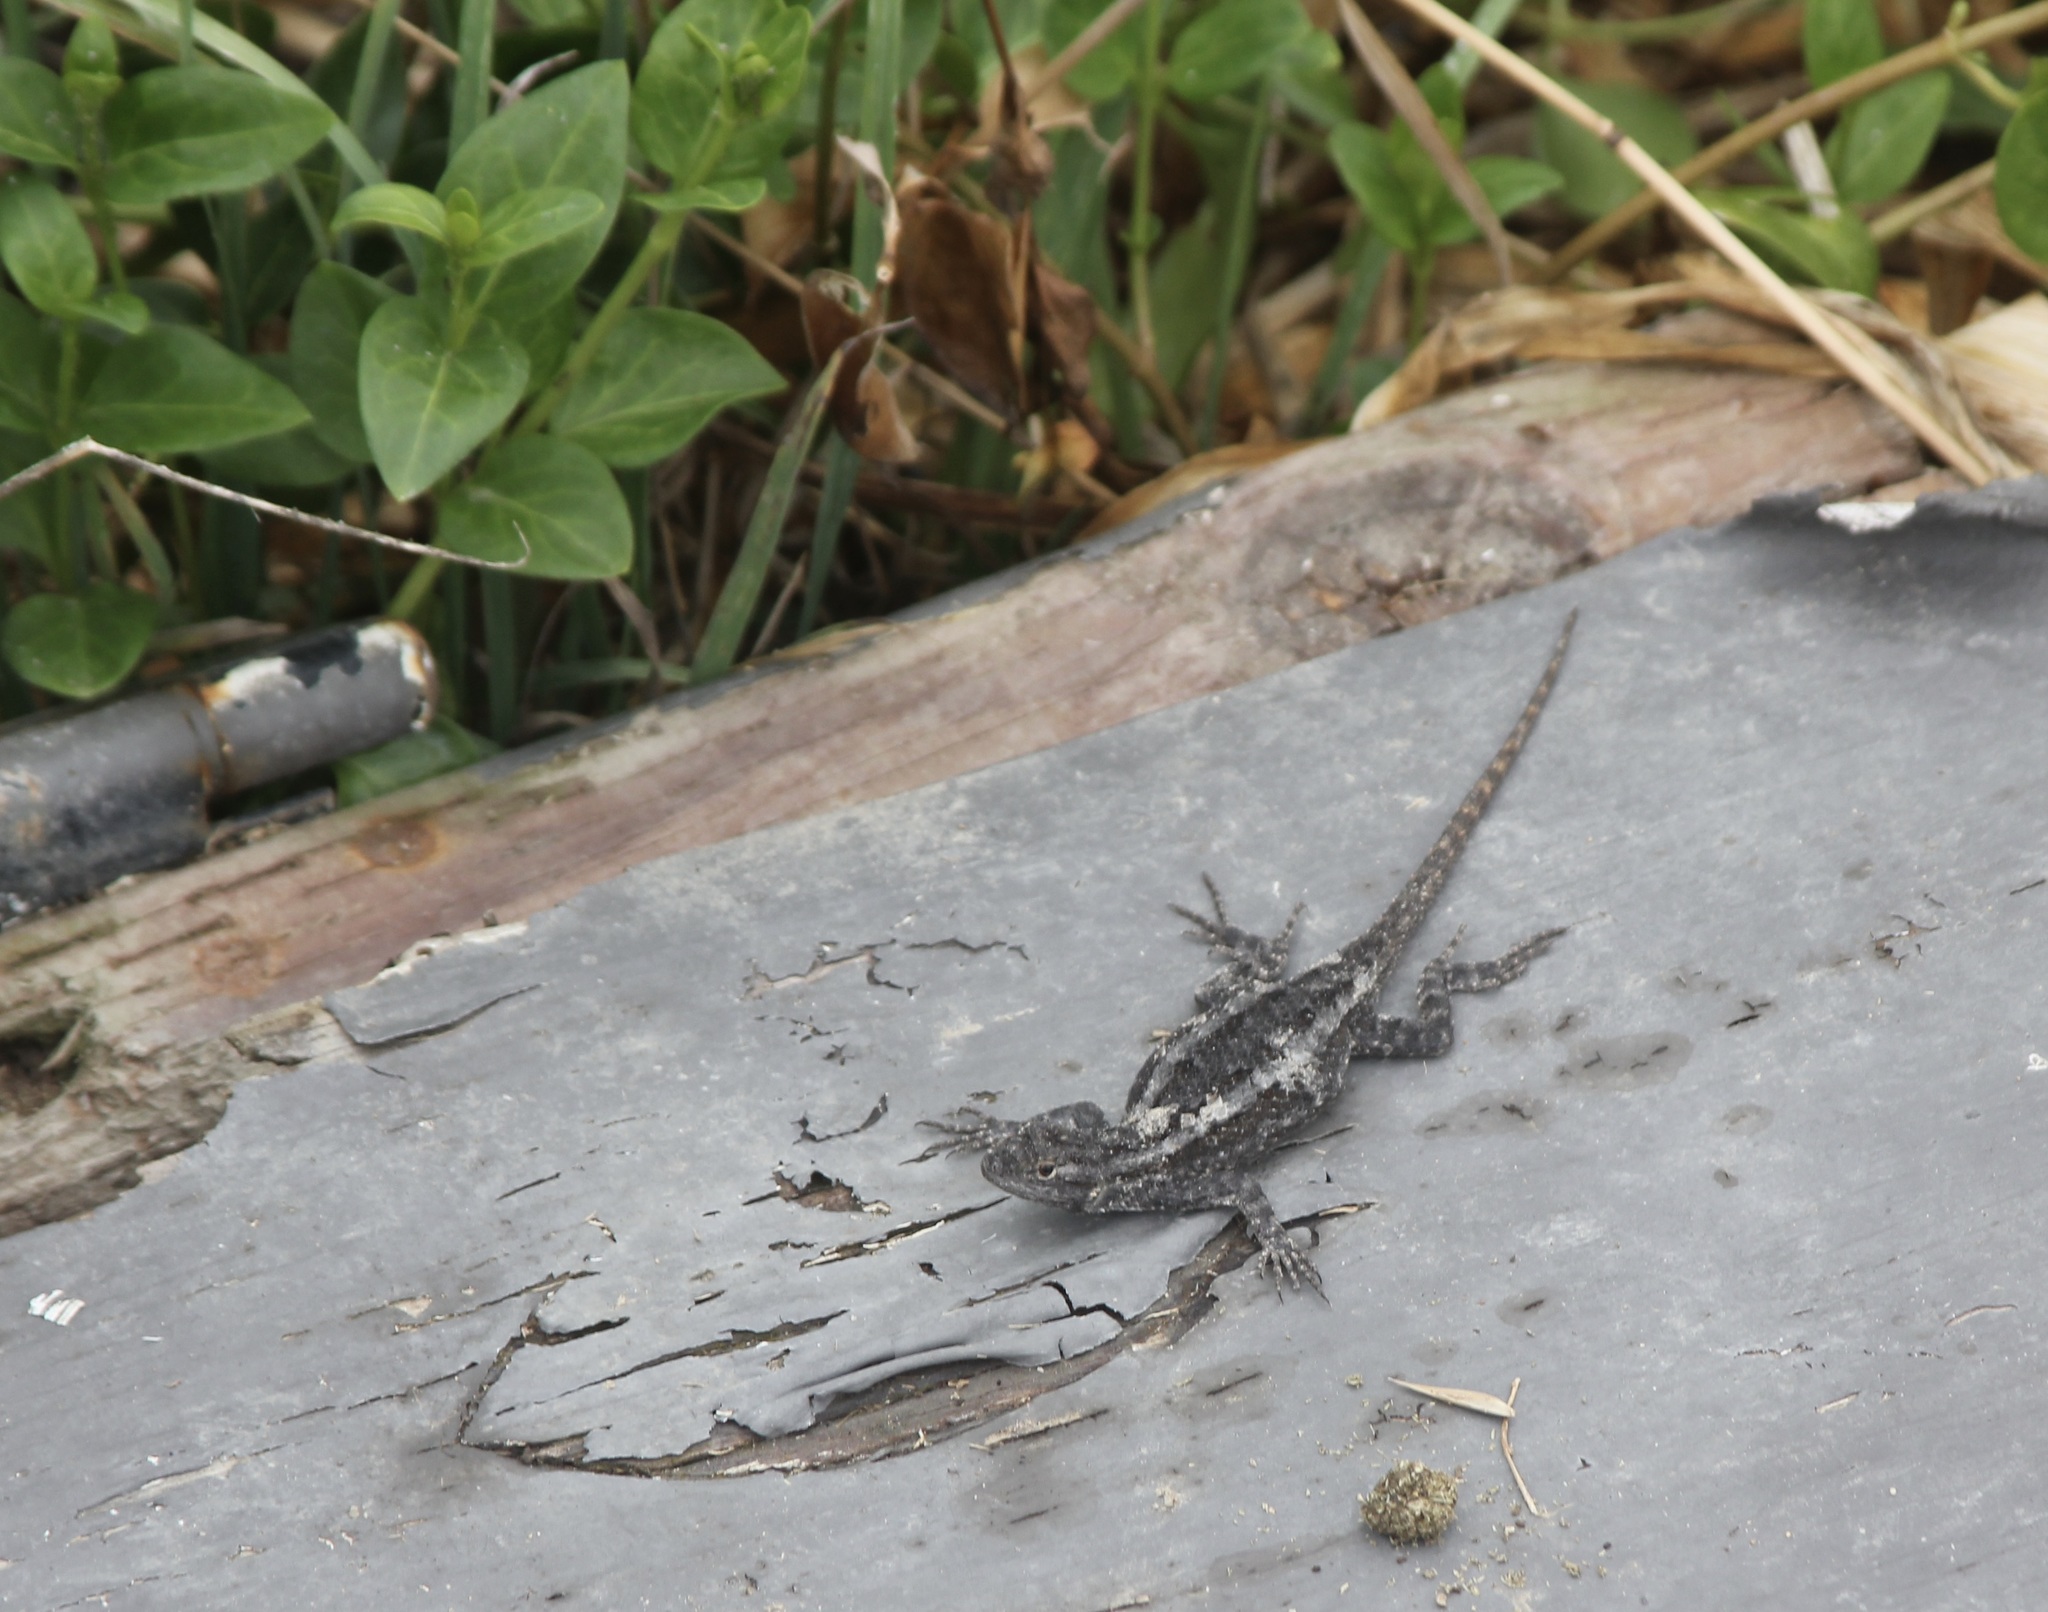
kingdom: Animalia
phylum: Chordata
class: Squamata
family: Phrynosomatidae
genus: Sceloporus
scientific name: Sceloporus occidentalis
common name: Western fence lizard
